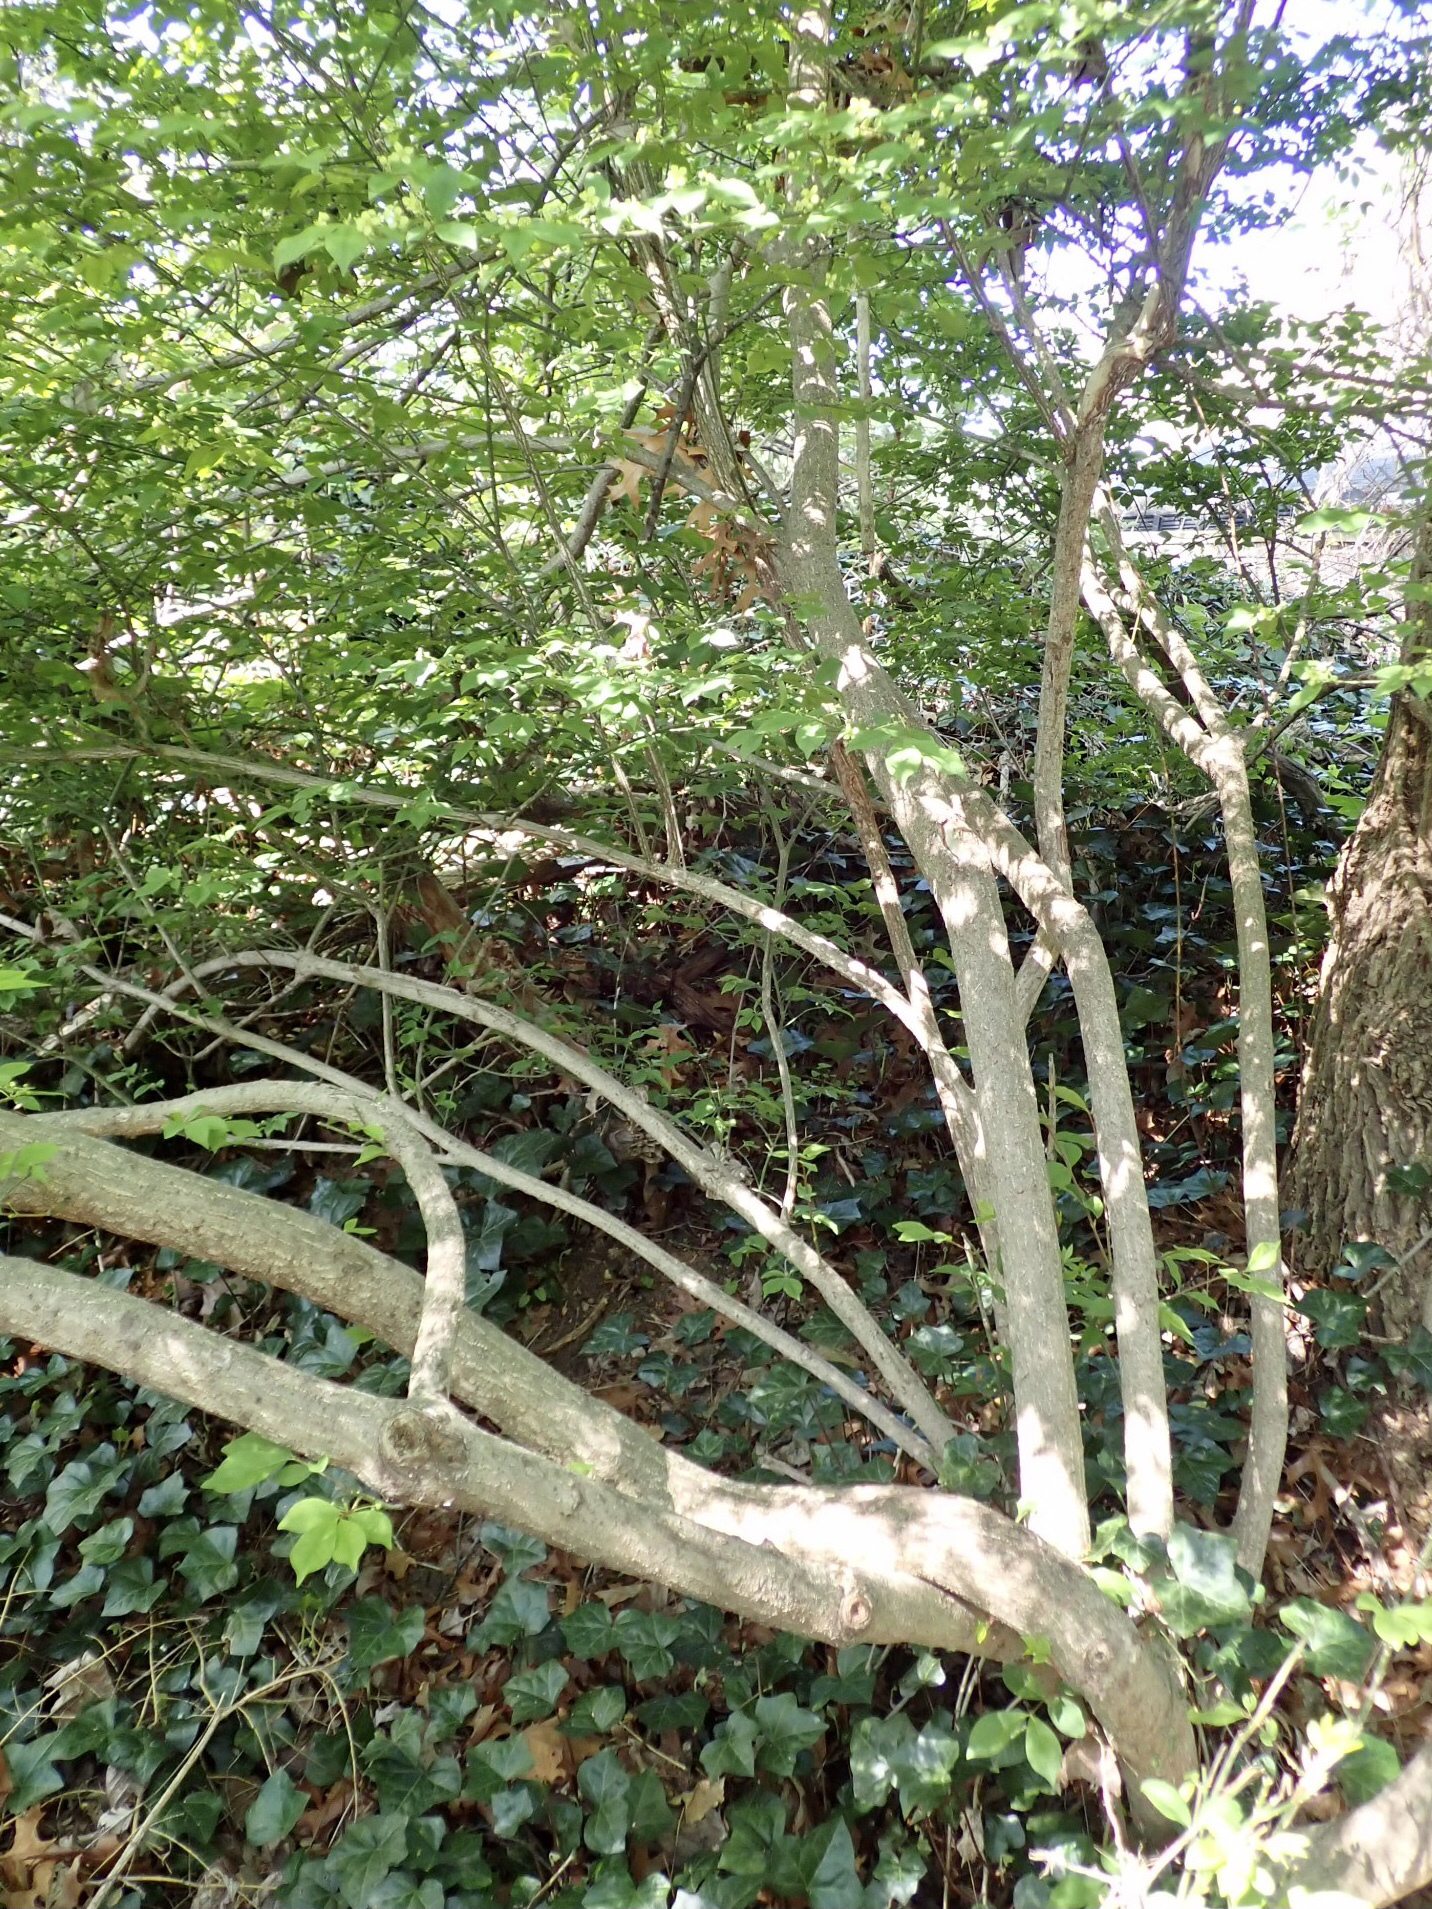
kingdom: Plantae
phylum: Tracheophyta
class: Magnoliopsida
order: Celastrales
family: Celastraceae
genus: Euonymus
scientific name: Euonymus alatus
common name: Winged euonymus
